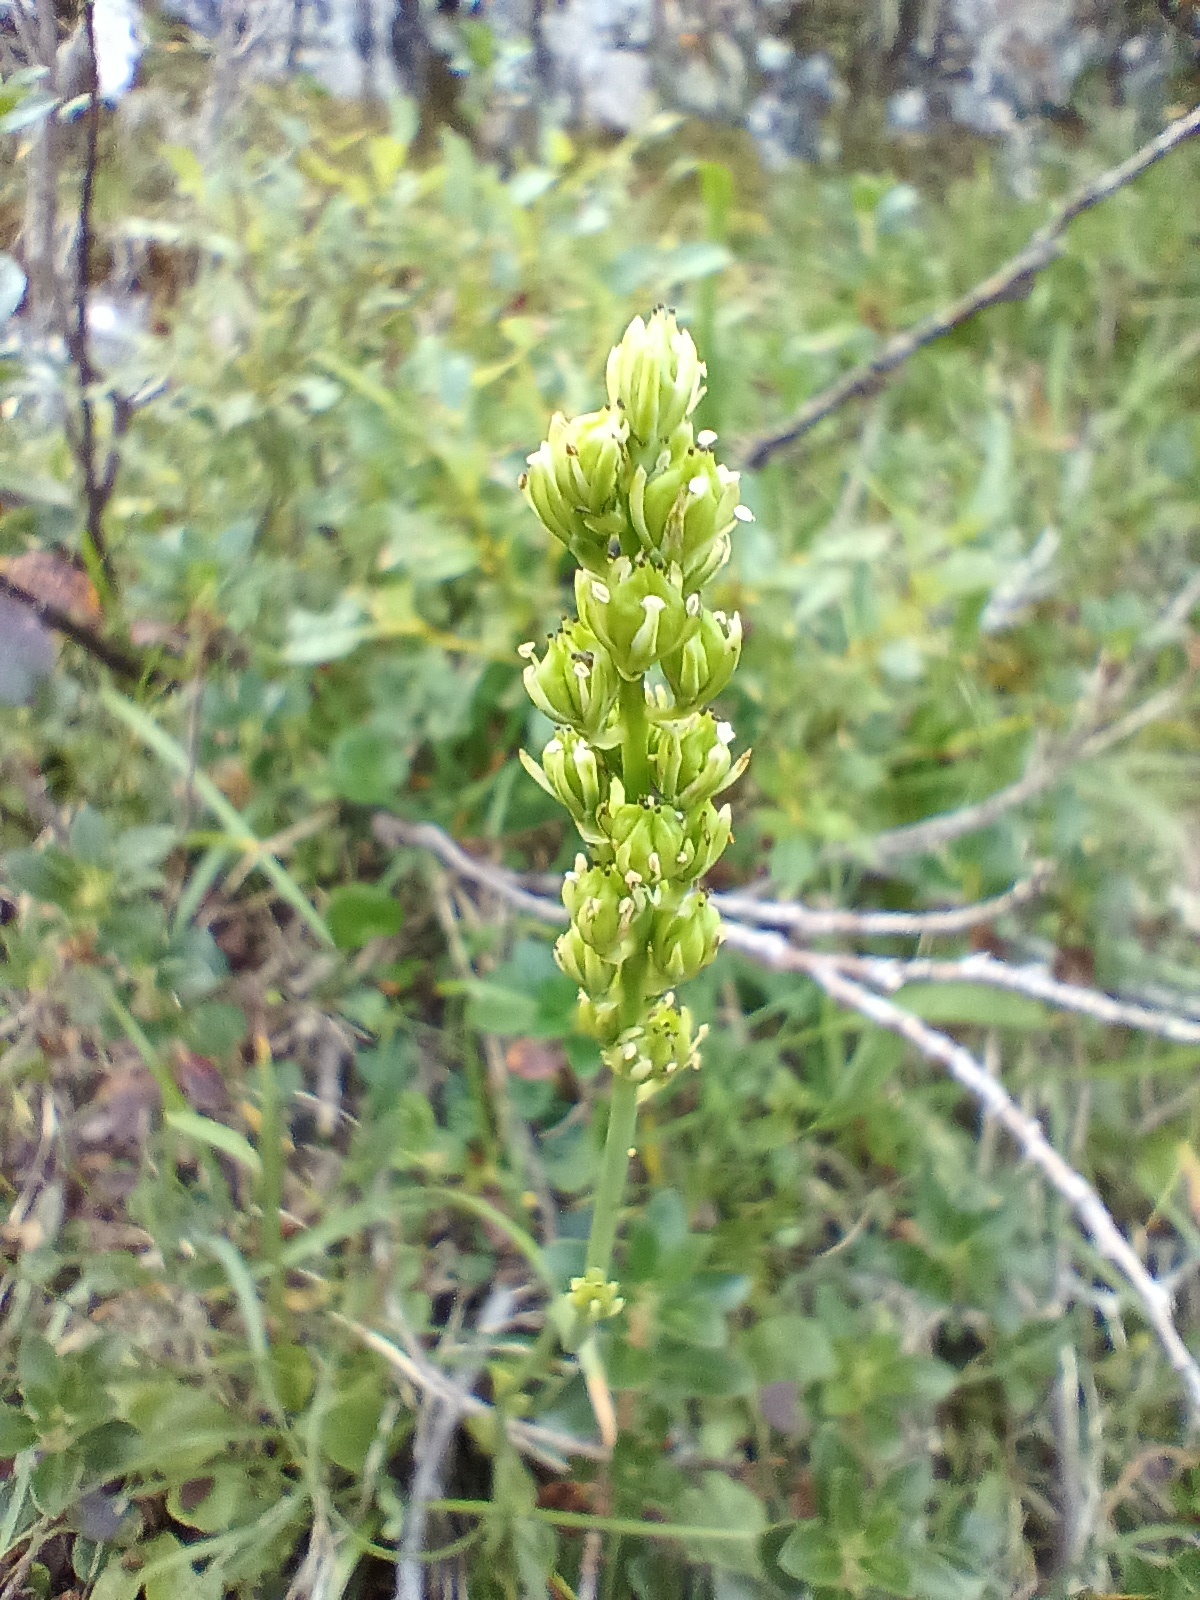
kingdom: Plantae
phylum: Tracheophyta
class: Liliopsida
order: Alismatales
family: Tofieldiaceae
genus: Tofieldia
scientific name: Tofieldia calyculata
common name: German-asphodel
